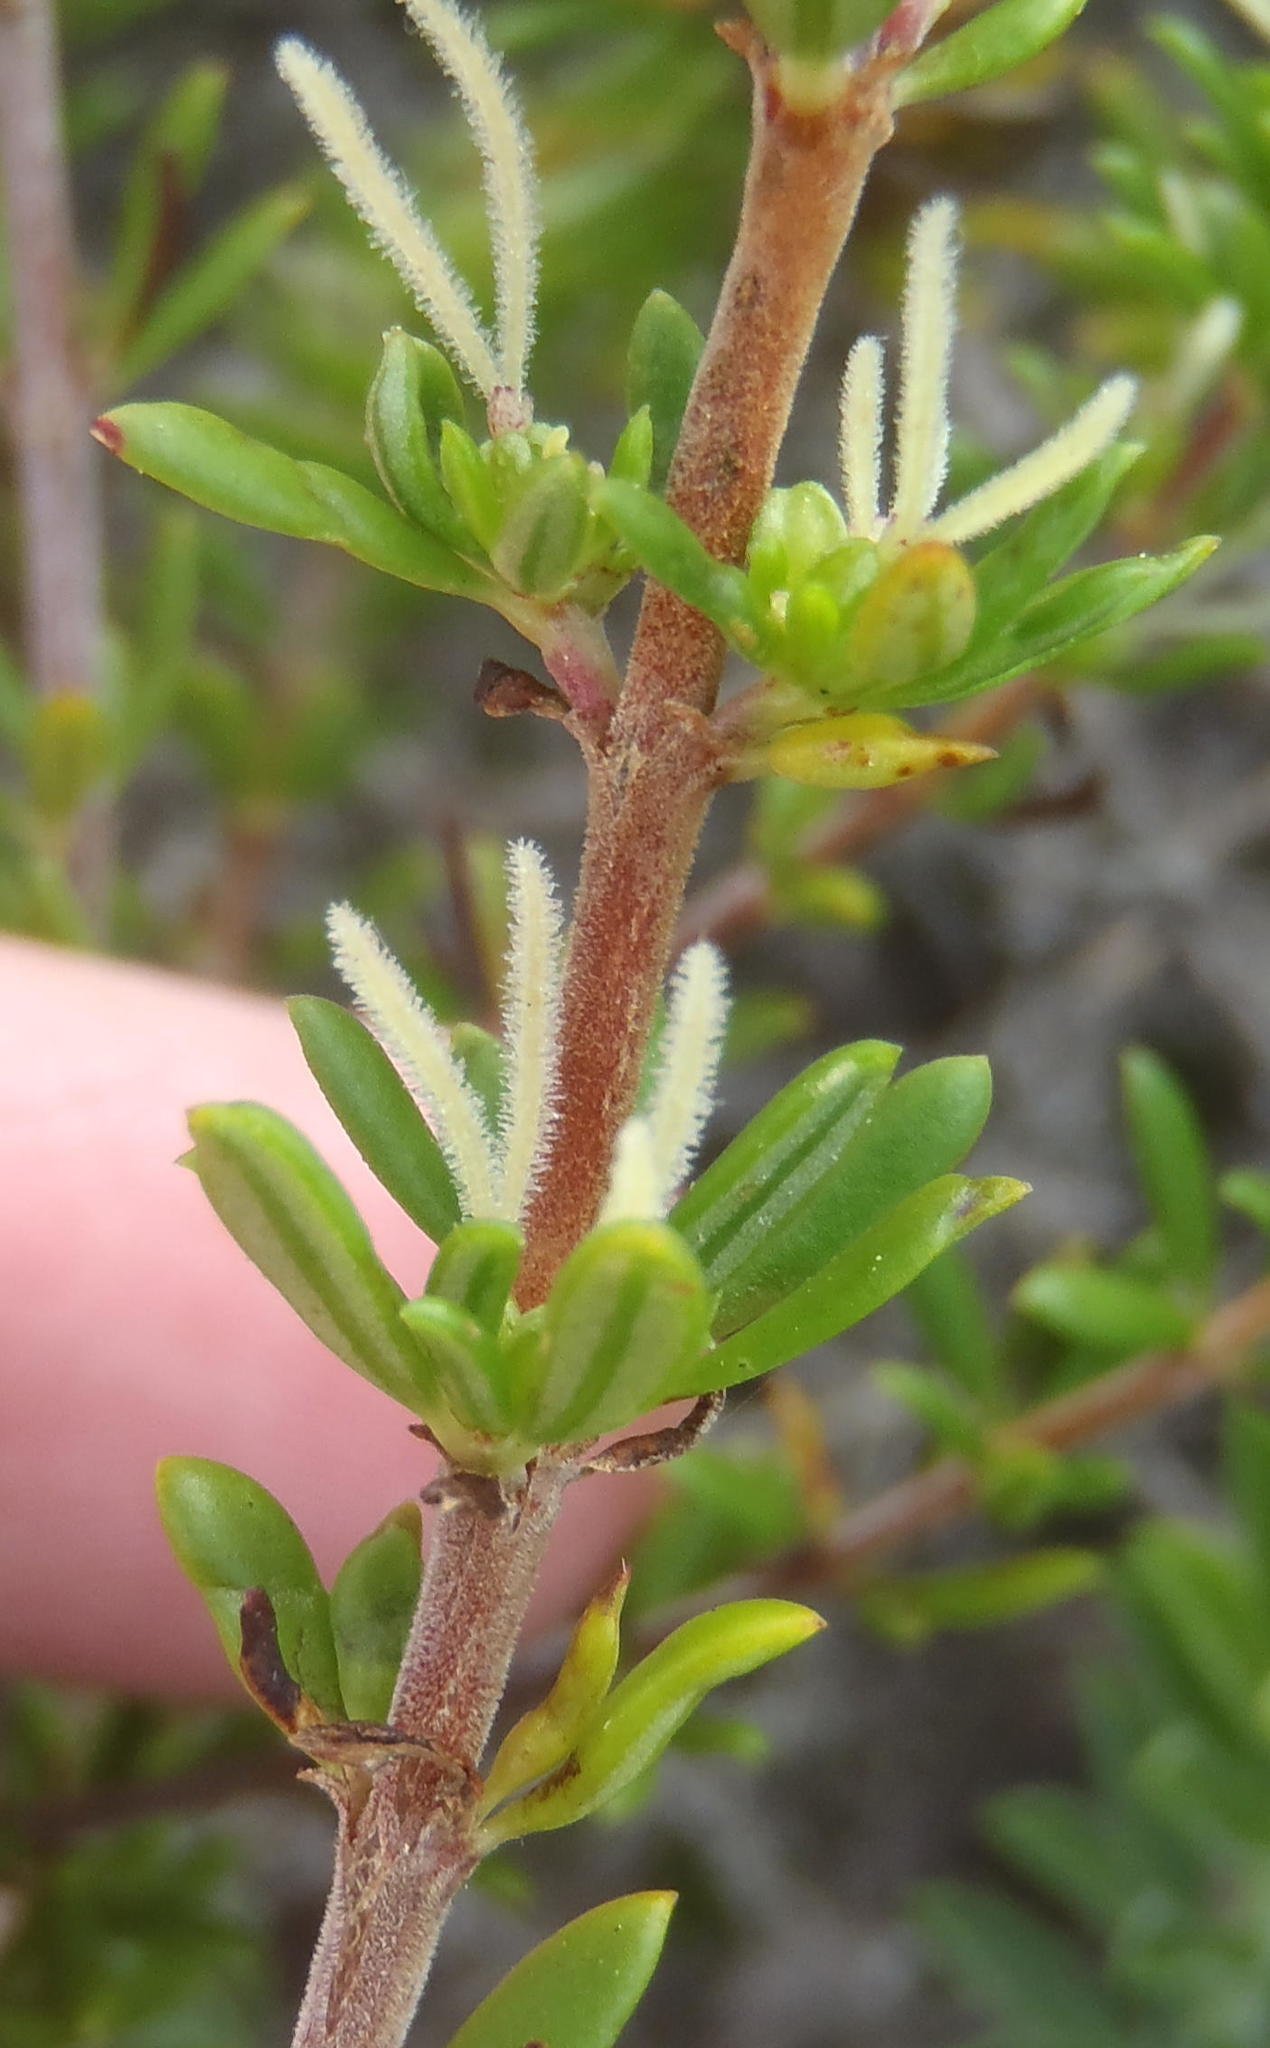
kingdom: Plantae
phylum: Tracheophyta
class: Magnoliopsida
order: Gentianales
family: Rubiaceae
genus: Anthospermum
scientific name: Anthospermum aethiopicum
